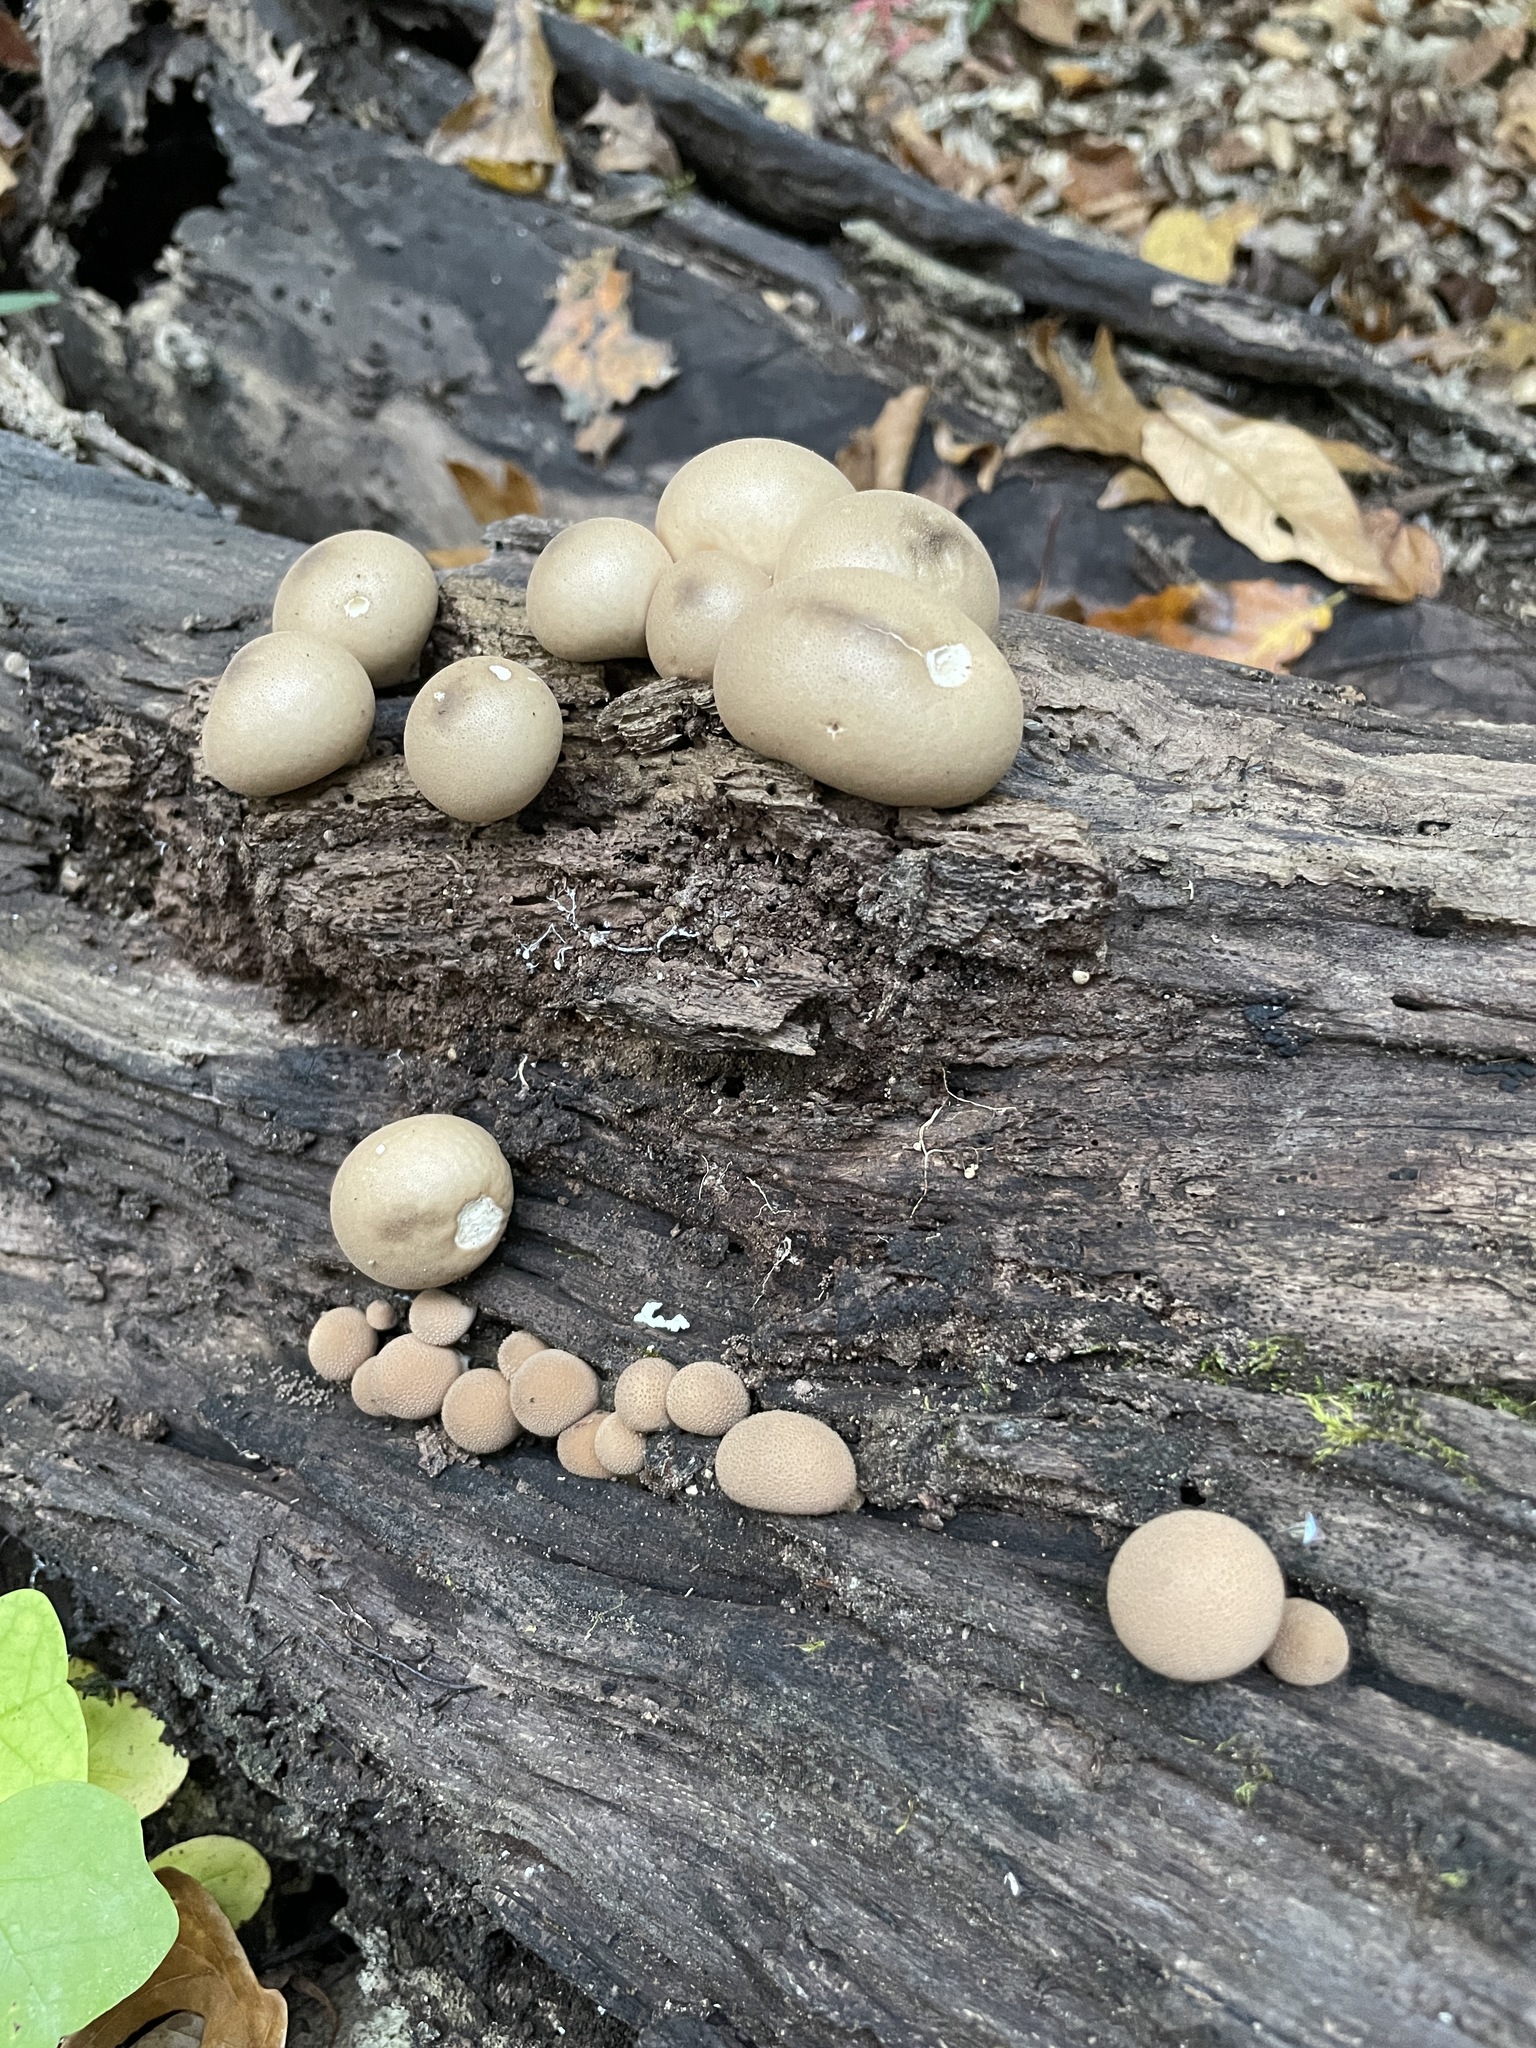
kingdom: Fungi
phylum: Basidiomycota
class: Agaricomycetes
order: Agaricales
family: Lycoperdaceae
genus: Apioperdon
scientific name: Apioperdon pyriforme
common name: Pear-shaped puffball
